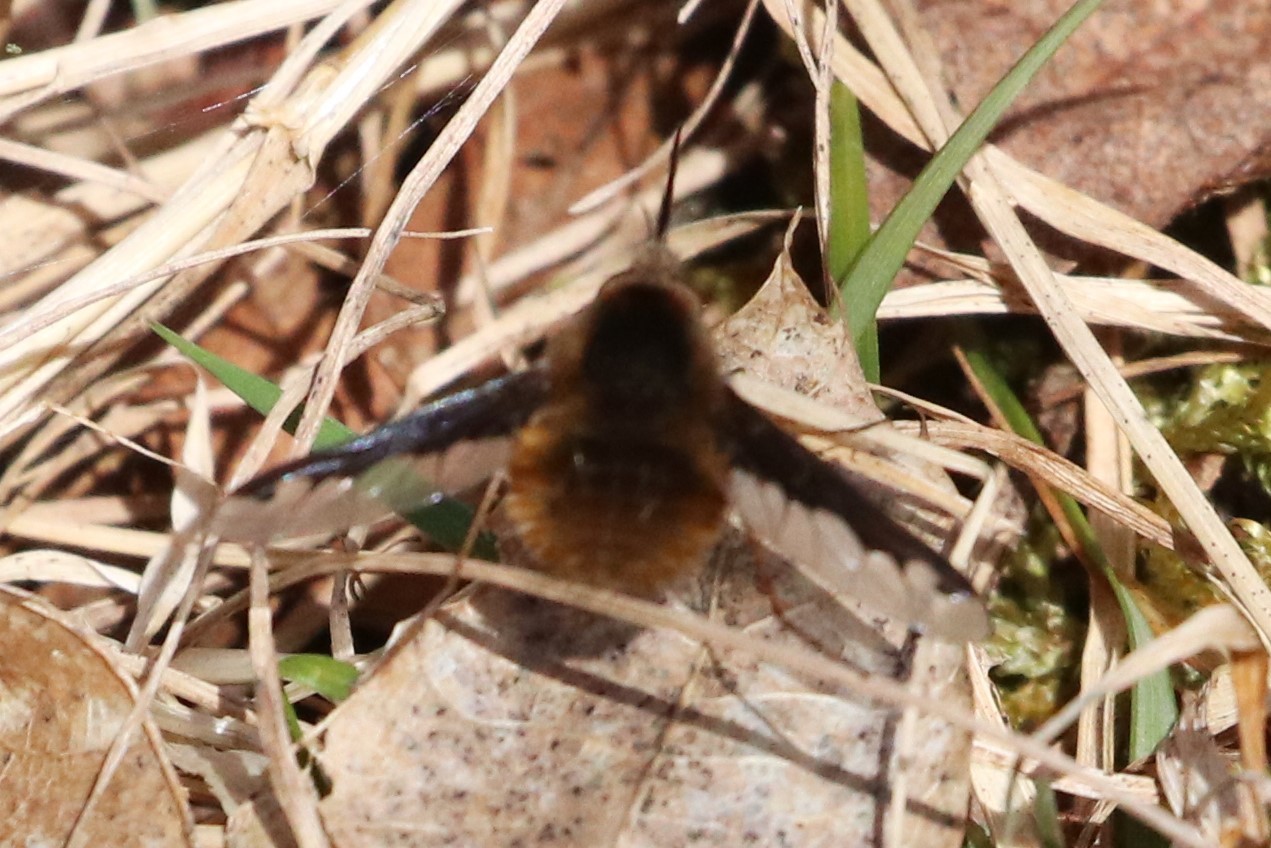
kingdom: Animalia
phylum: Arthropoda
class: Insecta
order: Diptera
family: Bombyliidae
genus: Bombylius
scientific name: Bombylius major
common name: Bee fly
